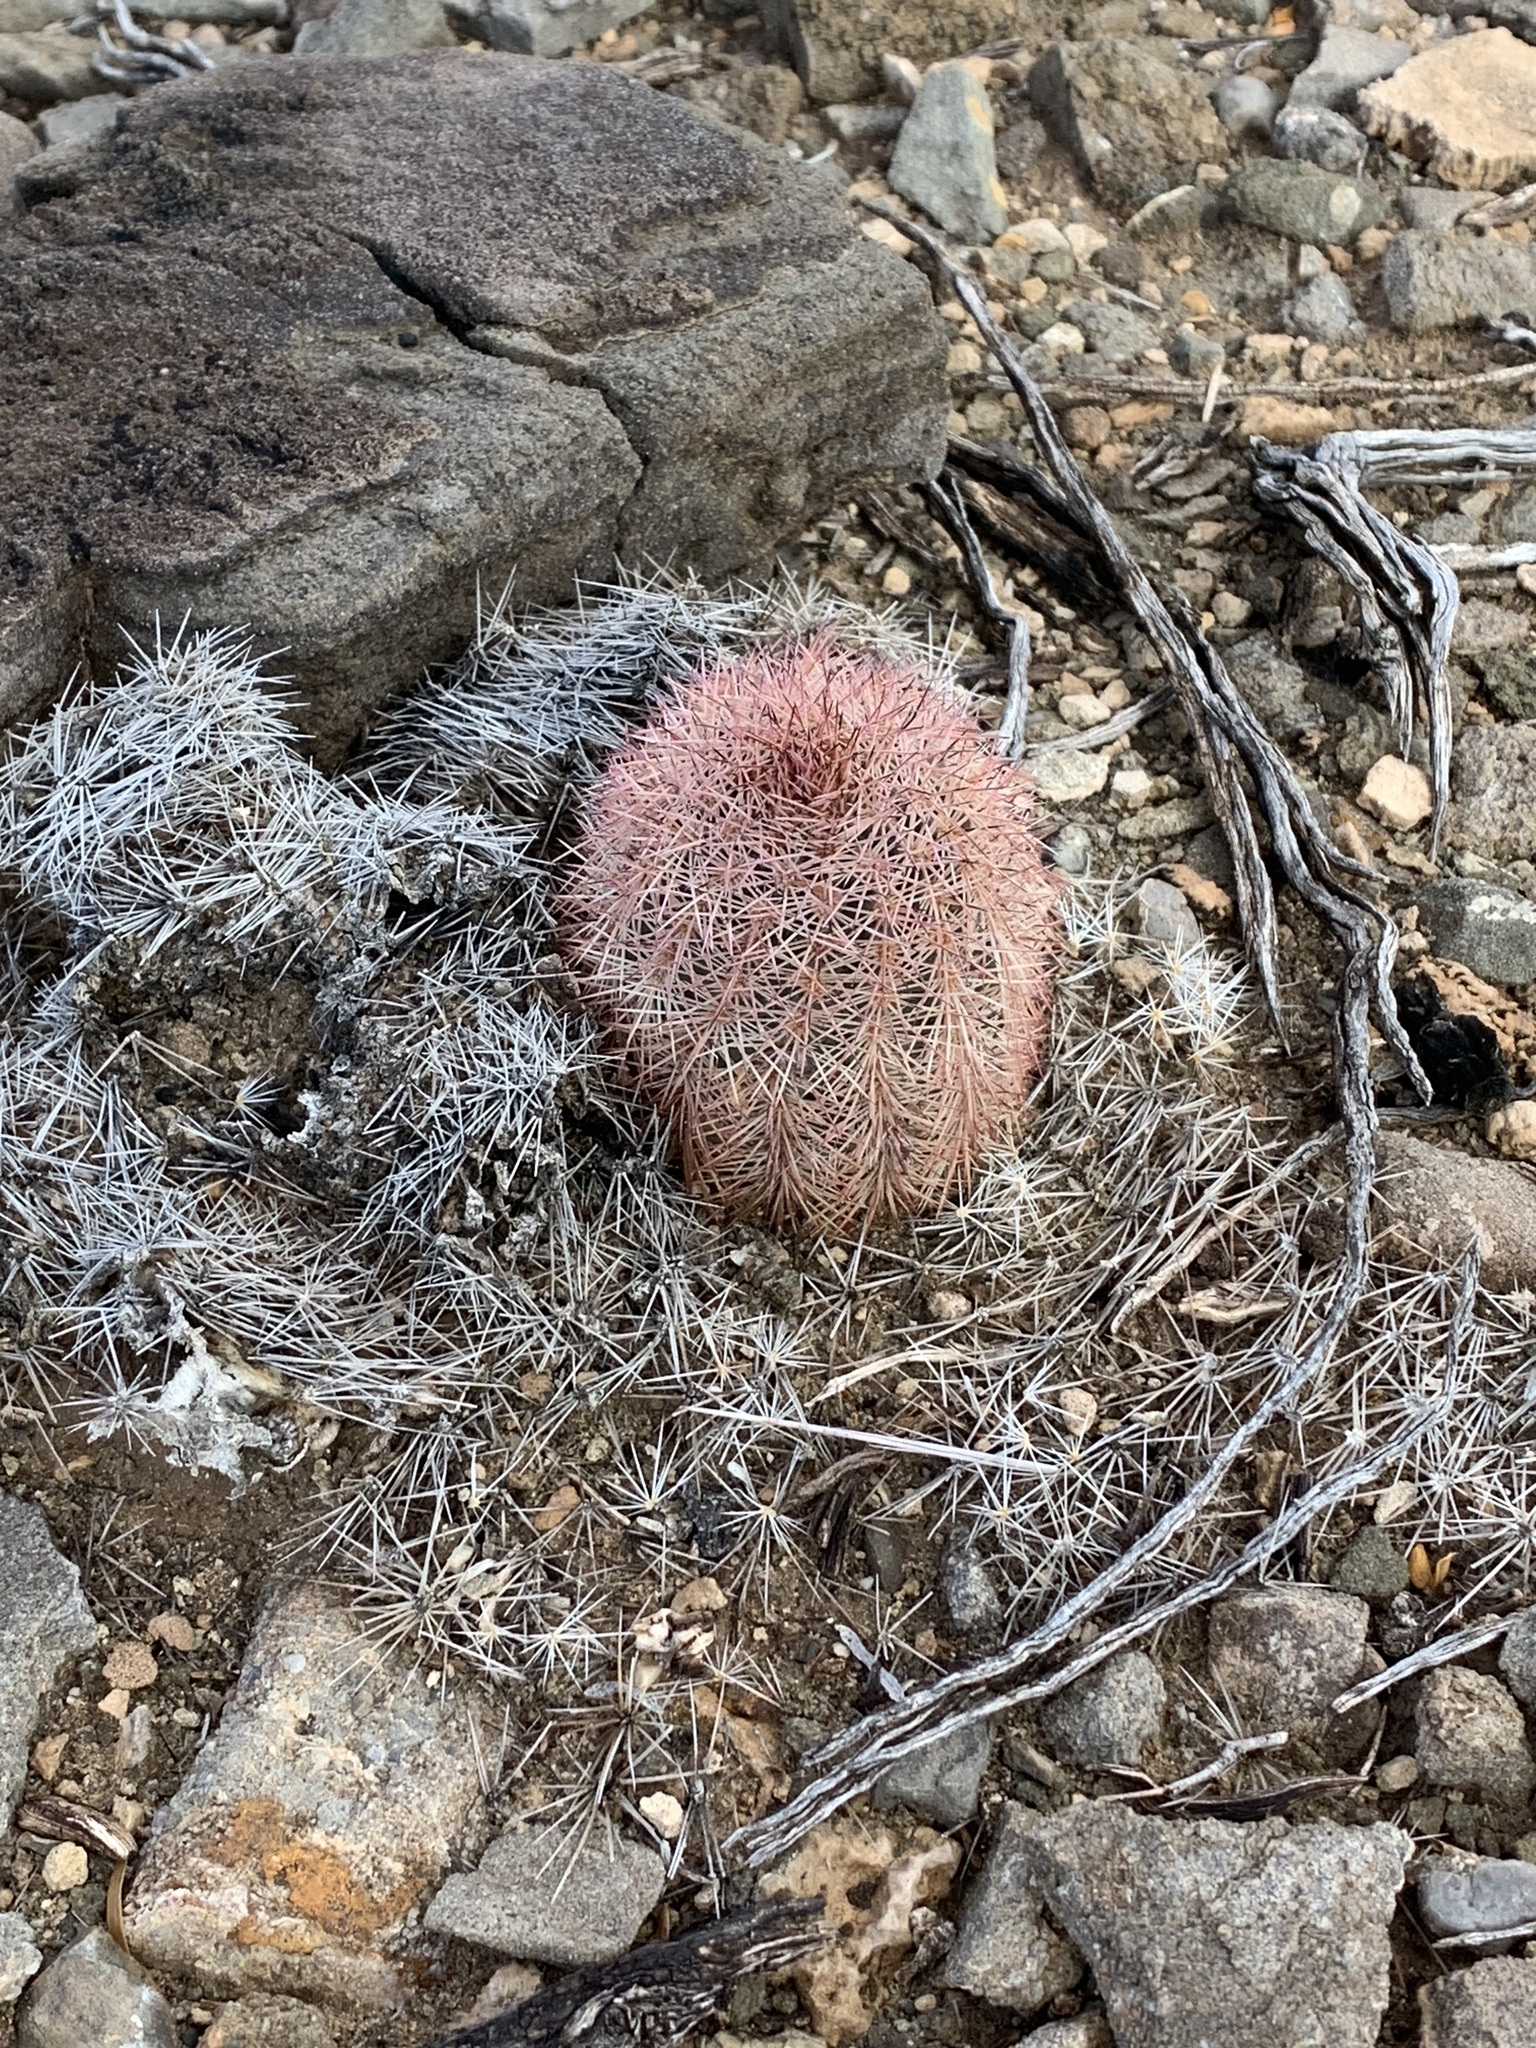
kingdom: Plantae
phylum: Tracheophyta
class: Magnoliopsida
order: Caryophyllales
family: Cactaceae
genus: Echinocereus
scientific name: Echinocereus dasyacanthus
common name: Spiny hedgehog cactus
